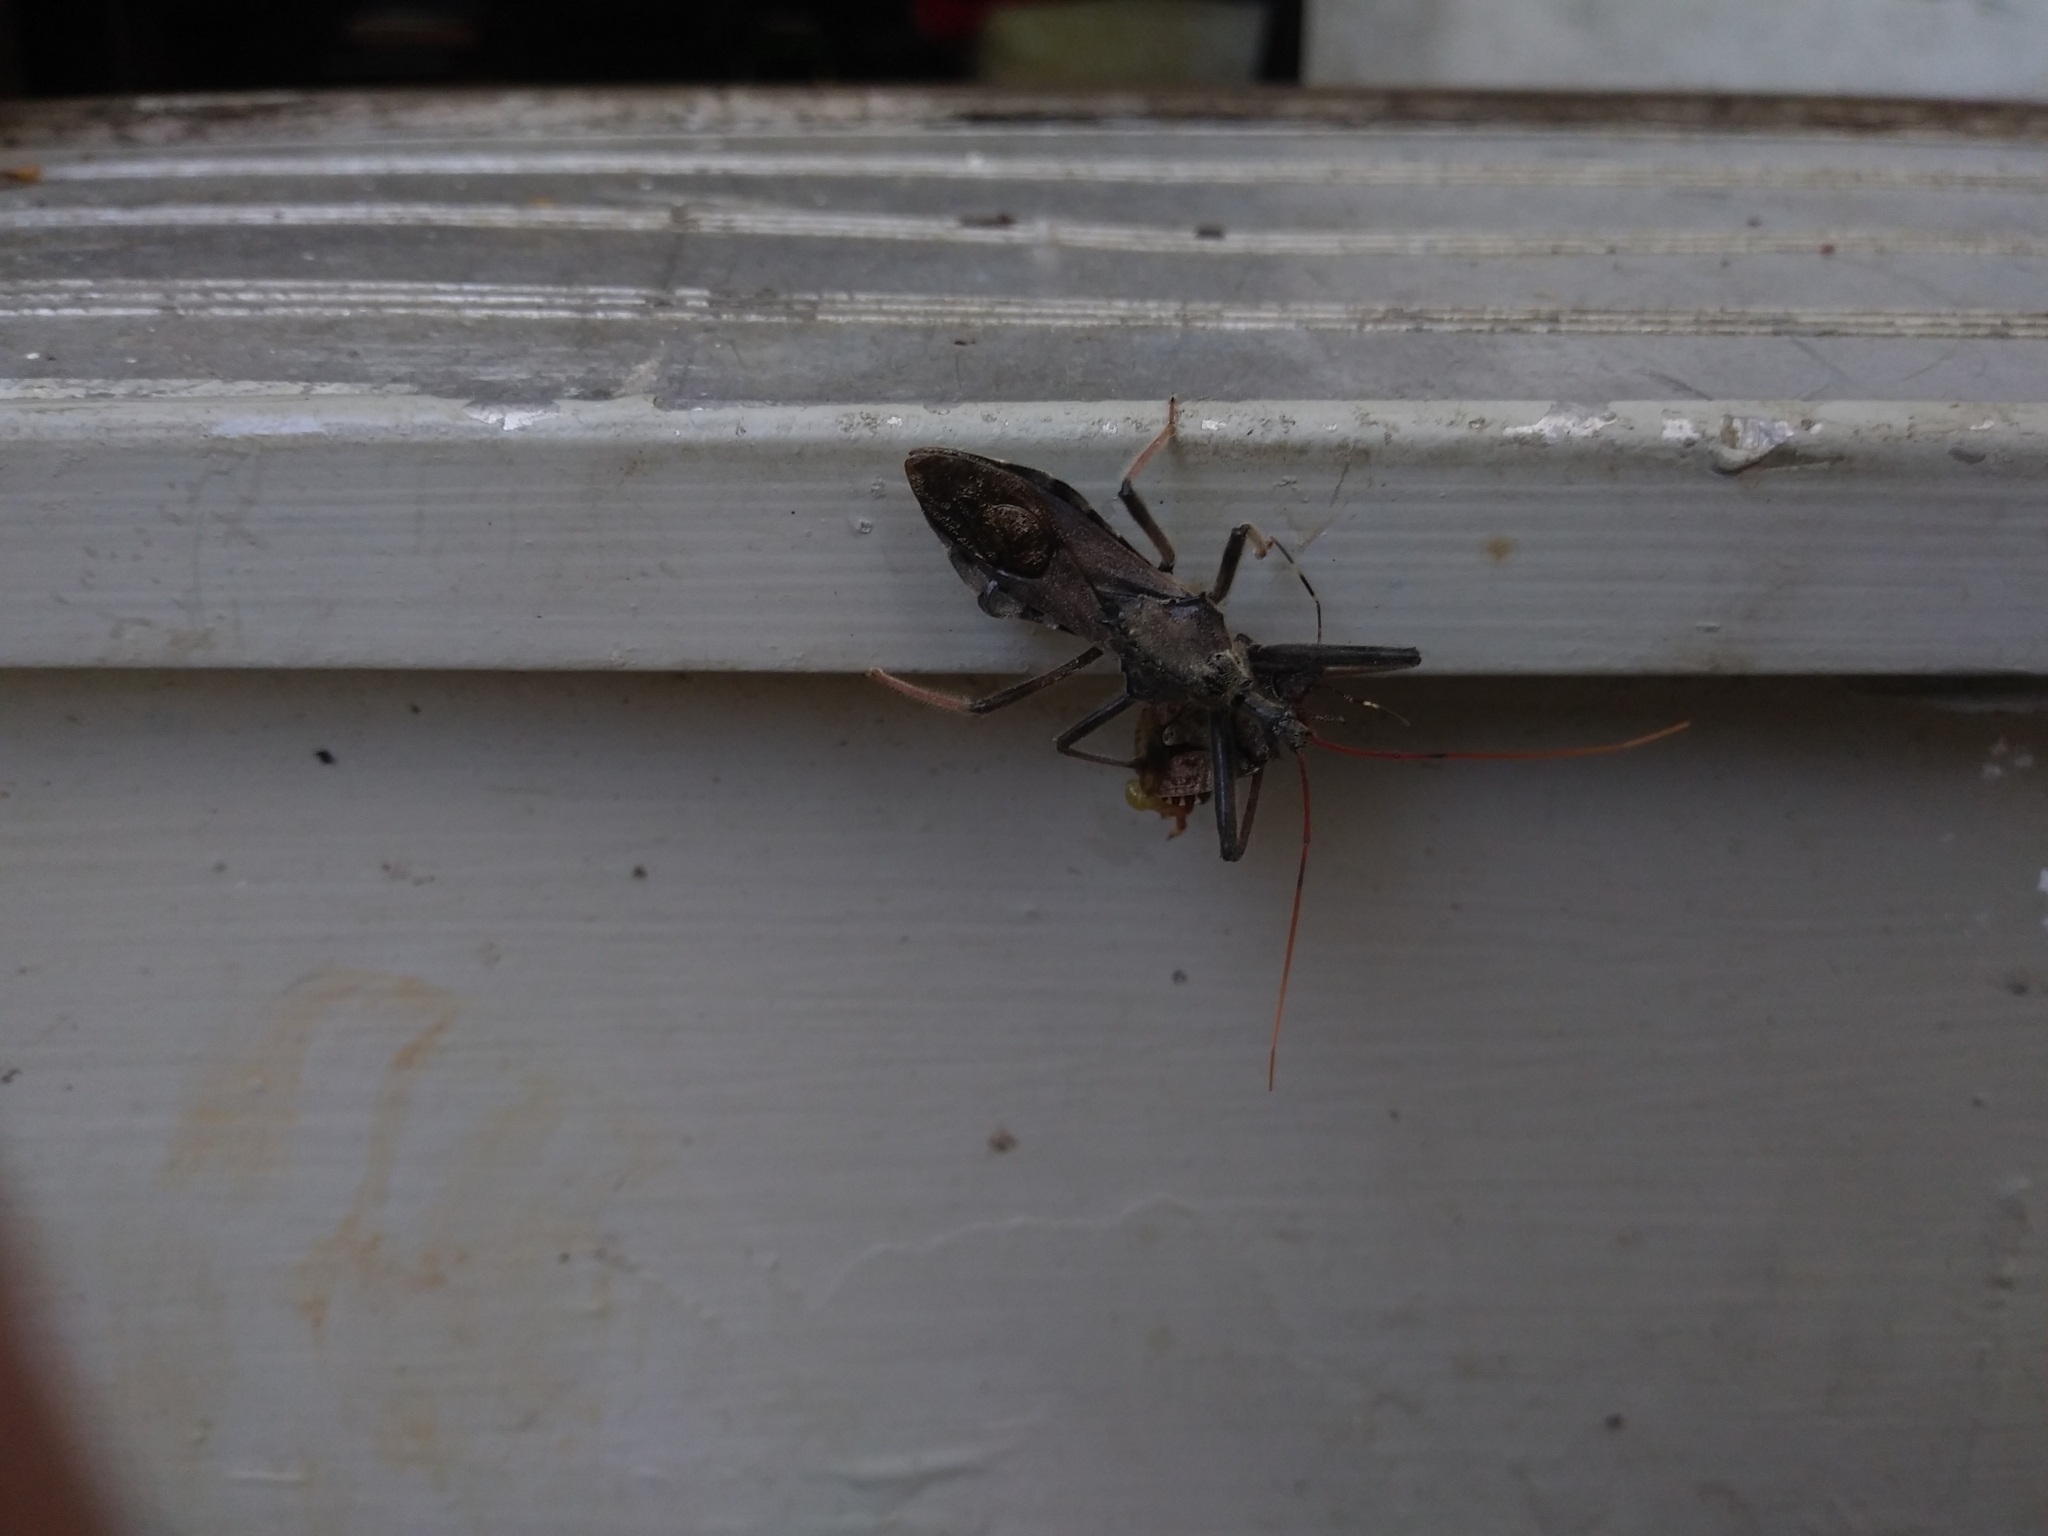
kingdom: Animalia
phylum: Arthropoda
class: Insecta
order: Hemiptera
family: Reduviidae
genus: Arilus
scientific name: Arilus cristatus
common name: North american wheel bug
